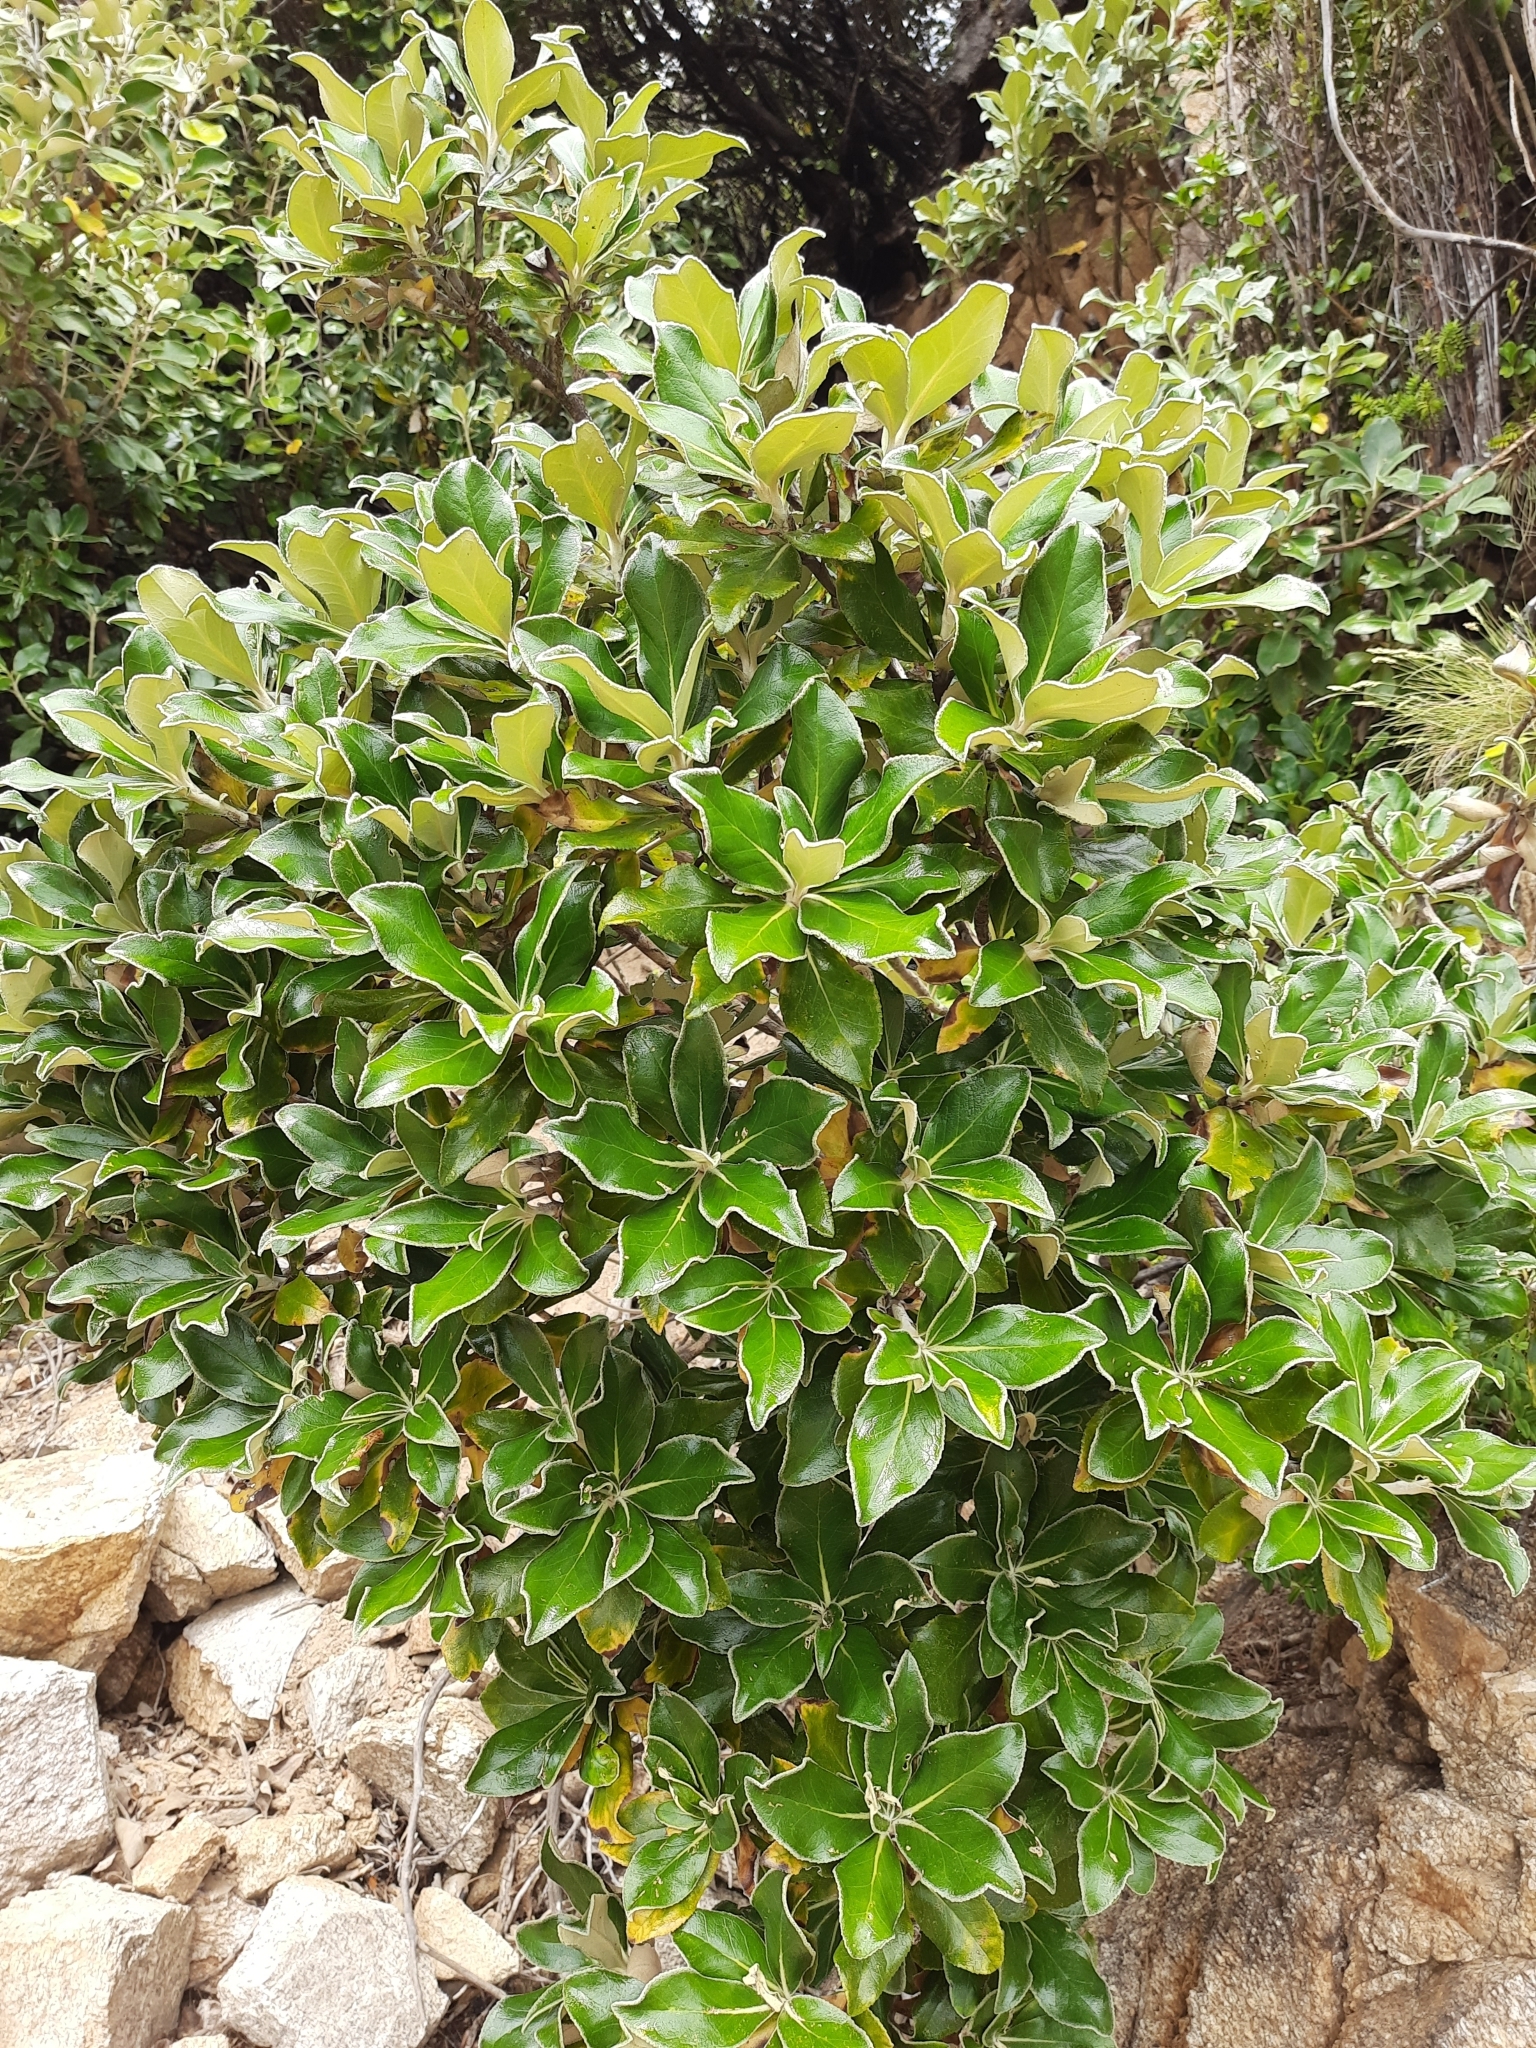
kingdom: Plantae
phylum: Tracheophyta
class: Magnoliopsida
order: Asterales
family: Asteraceae
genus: Macrolearia
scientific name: Macrolearia colensoi
